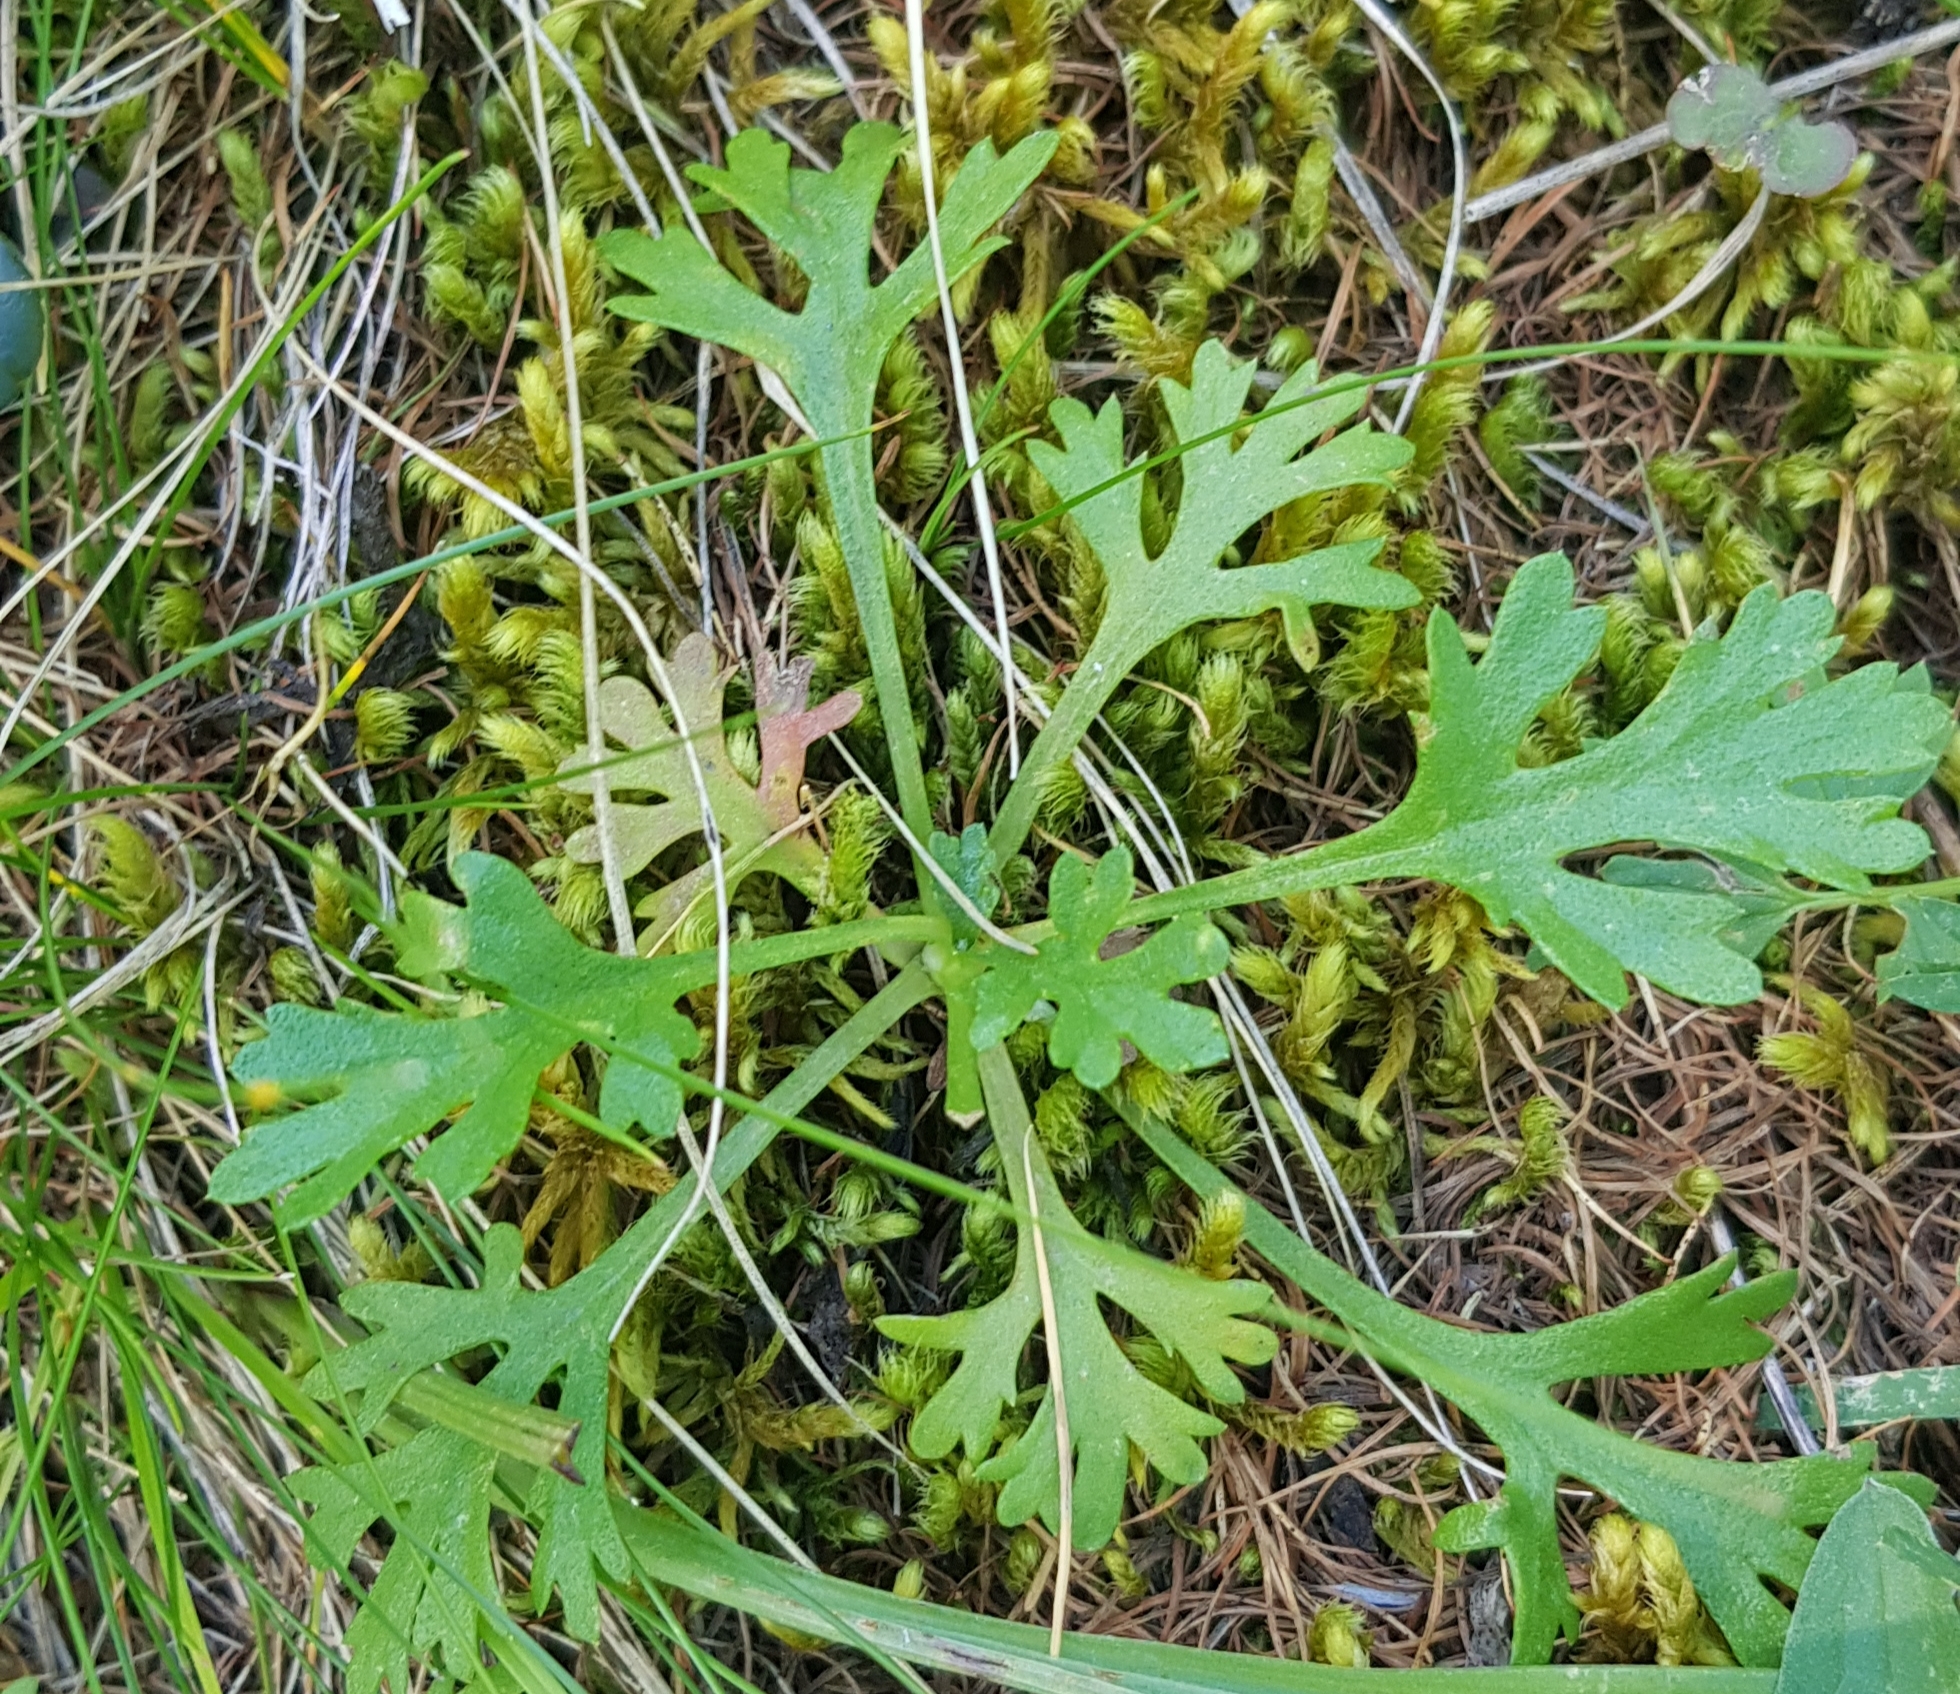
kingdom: Plantae
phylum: Tracheophyta
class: Magnoliopsida
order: Asterales
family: Asteraceae
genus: Chrysanthemum
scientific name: Chrysanthemum zawadzkii
